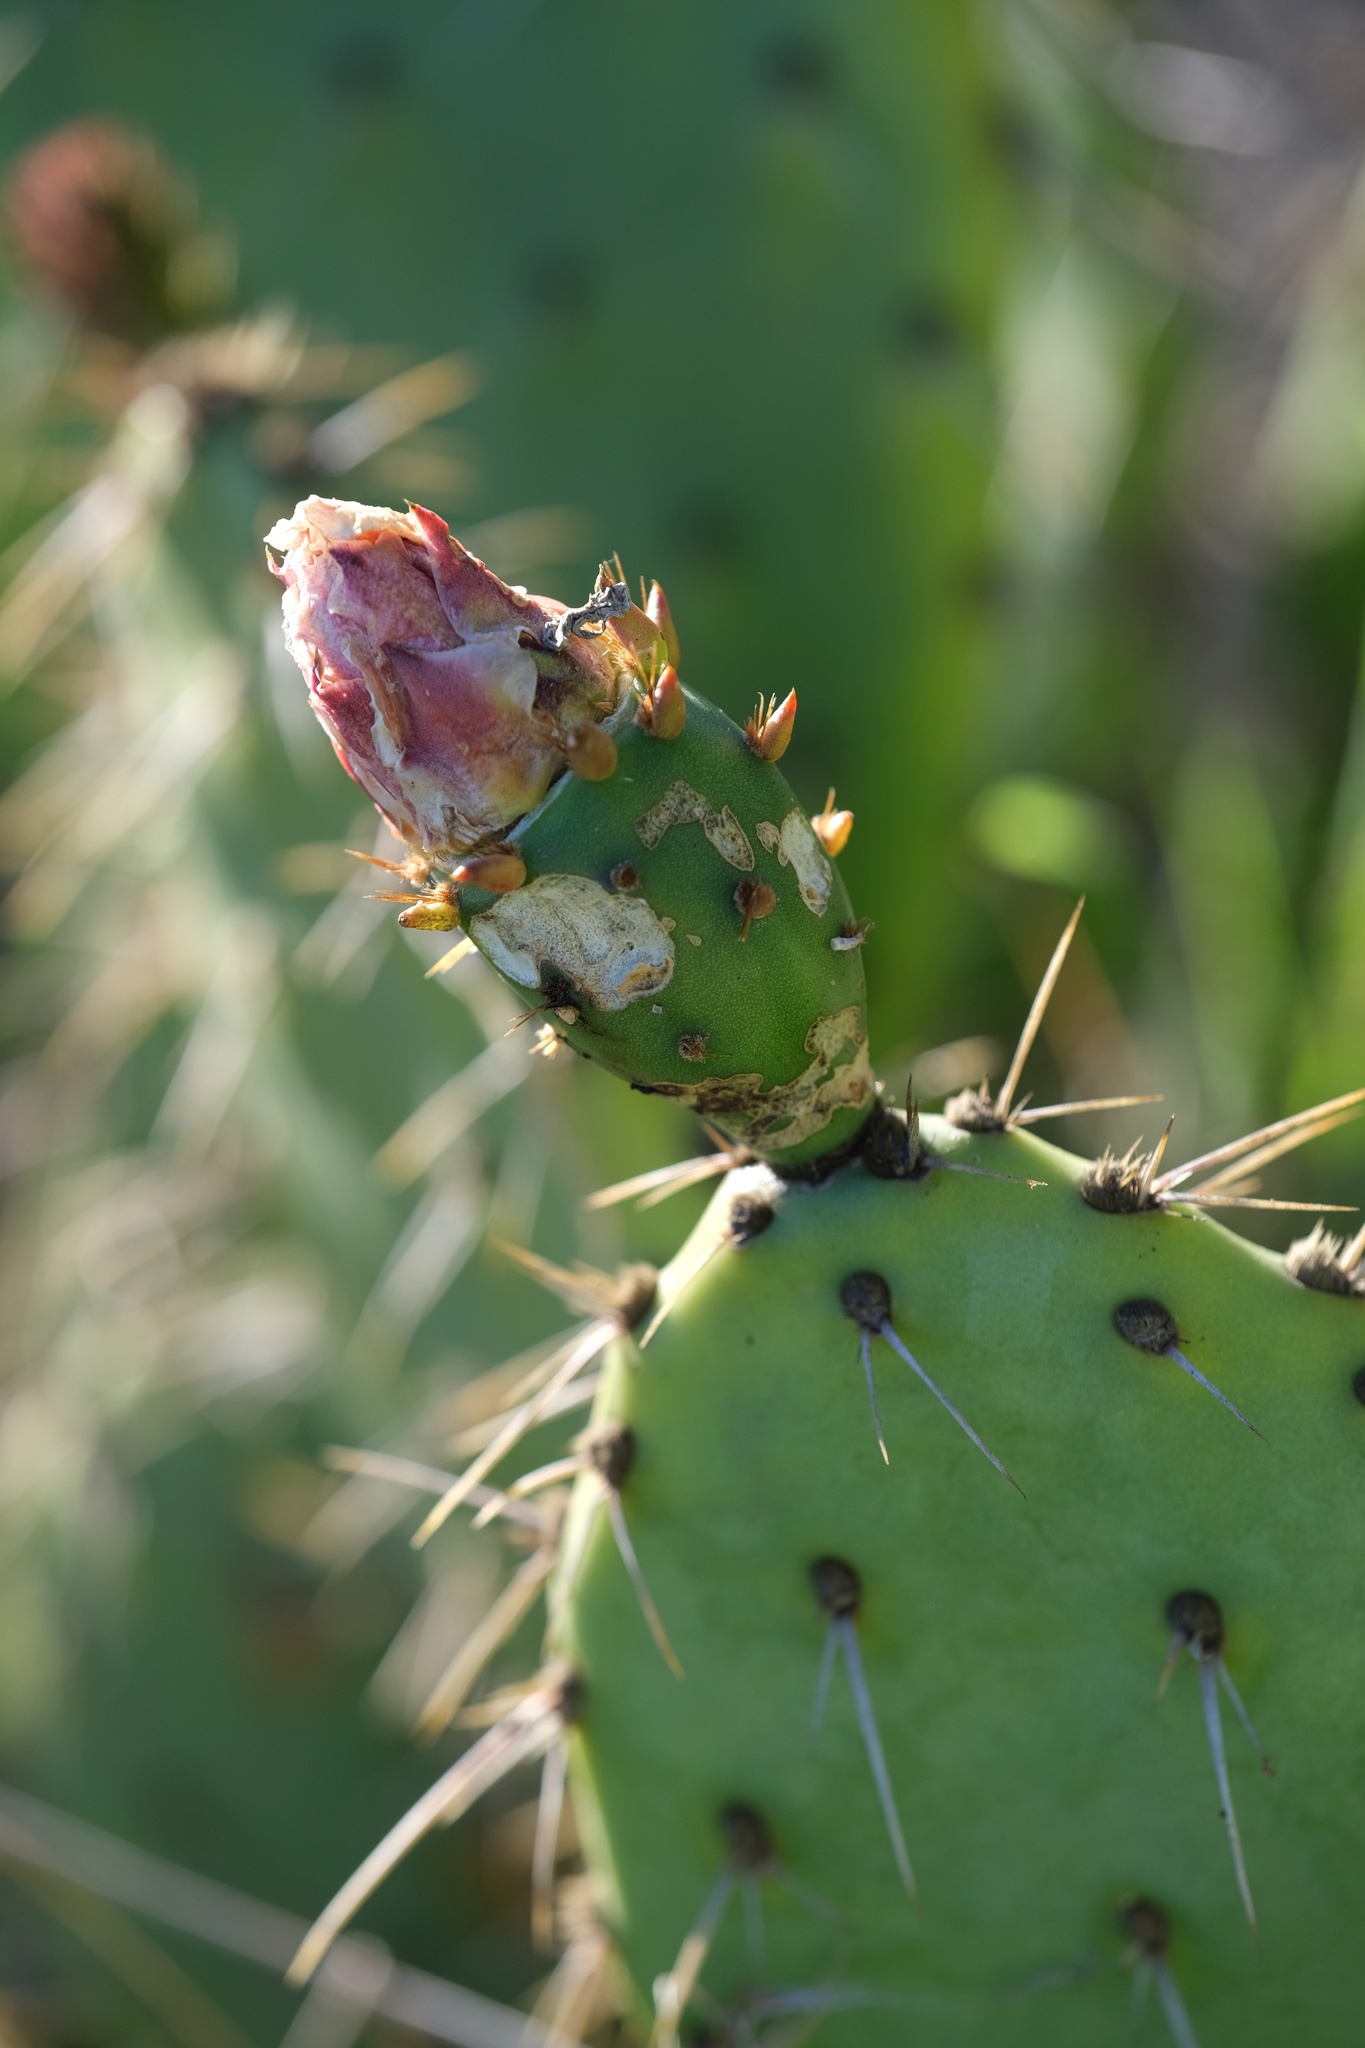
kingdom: Plantae
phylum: Tracheophyta
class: Magnoliopsida
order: Caryophyllales
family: Cactaceae
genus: Opuntia
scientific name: Opuntia littoralis
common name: Coastal prickly-pear
